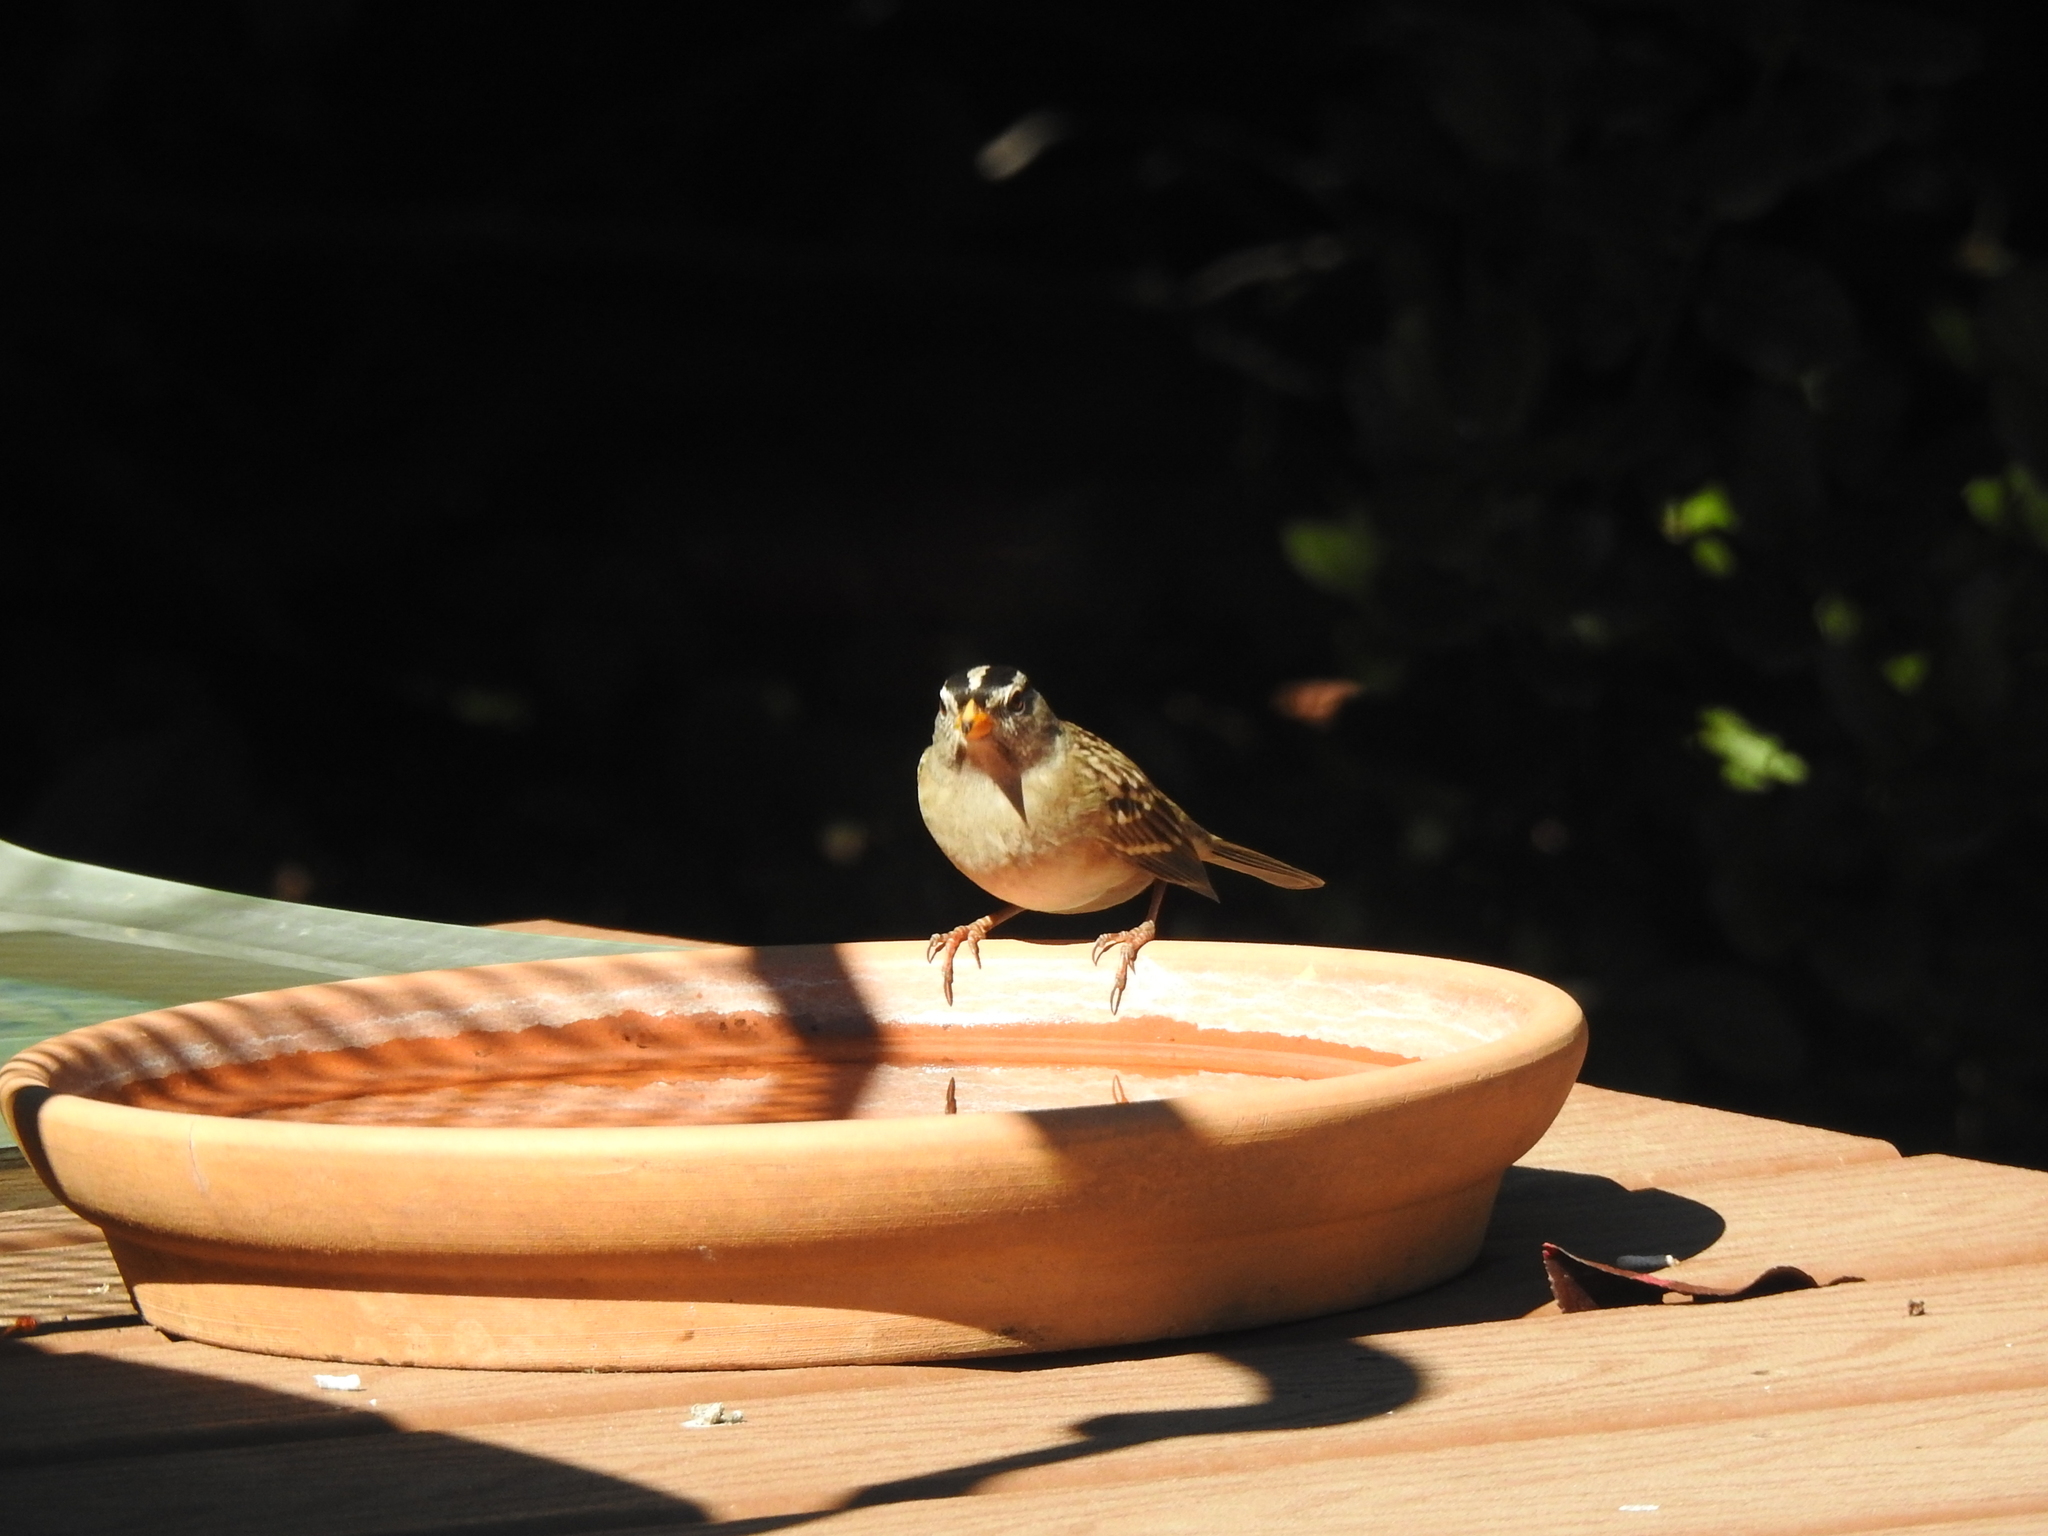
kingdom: Animalia
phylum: Chordata
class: Aves
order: Passeriformes
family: Passerellidae
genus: Zonotrichia
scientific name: Zonotrichia leucophrys
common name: White-crowned sparrow
